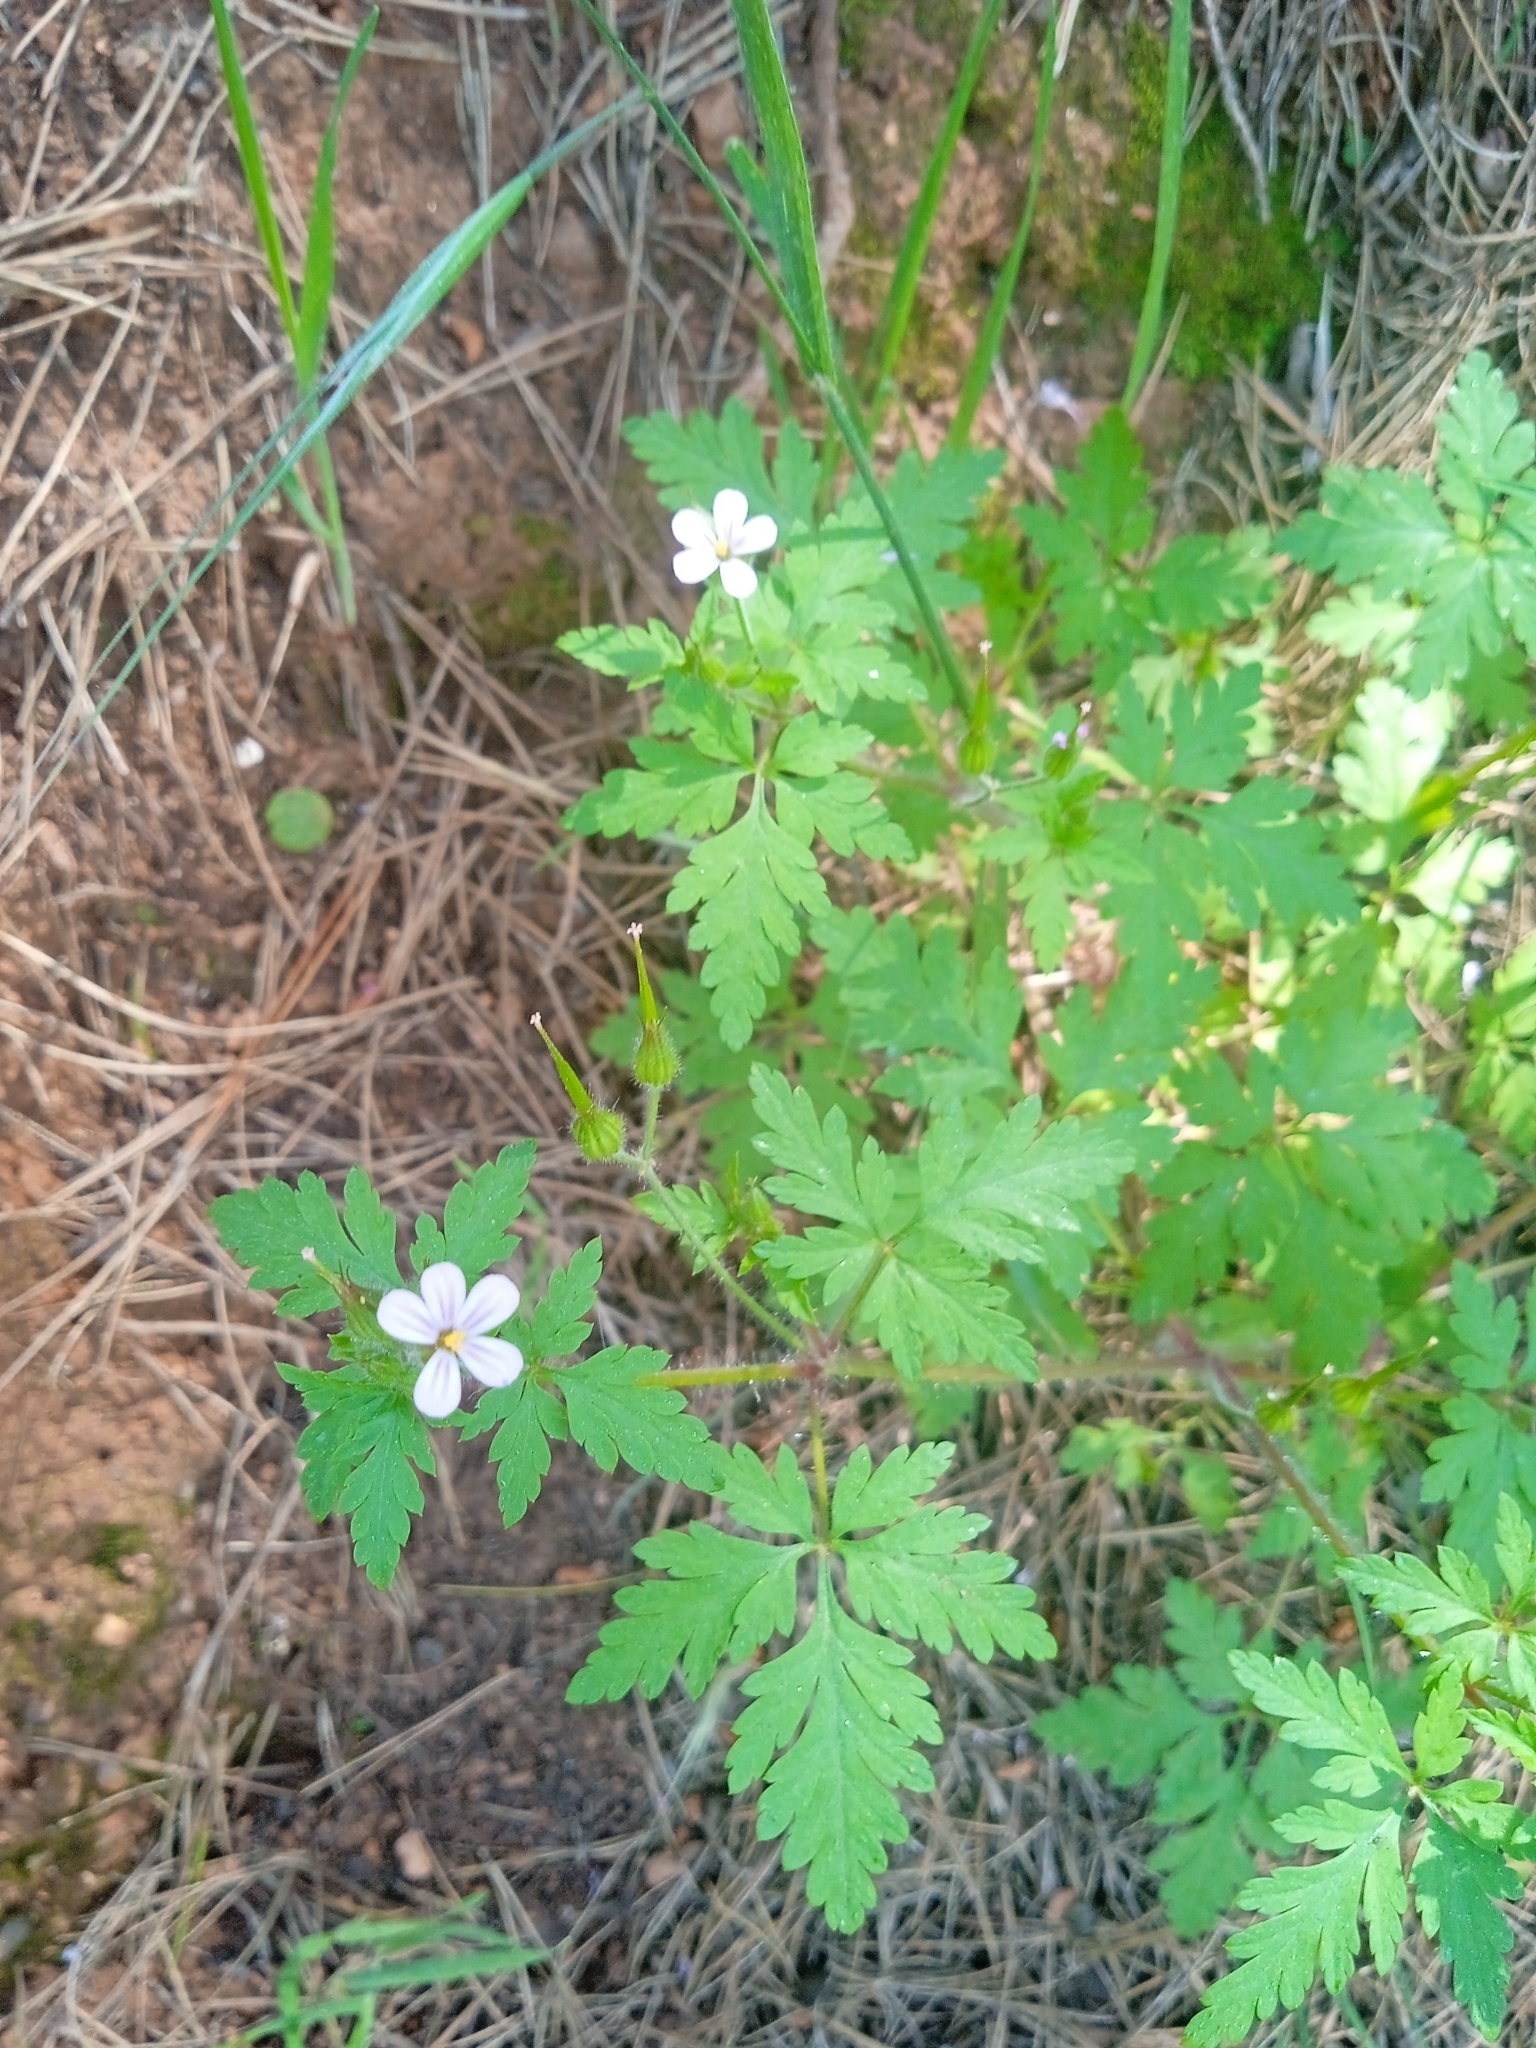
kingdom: Plantae
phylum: Tracheophyta
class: Magnoliopsida
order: Geraniales
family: Geraniaceae
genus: Geranium
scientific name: Geranium purpureum
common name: Little-robin
